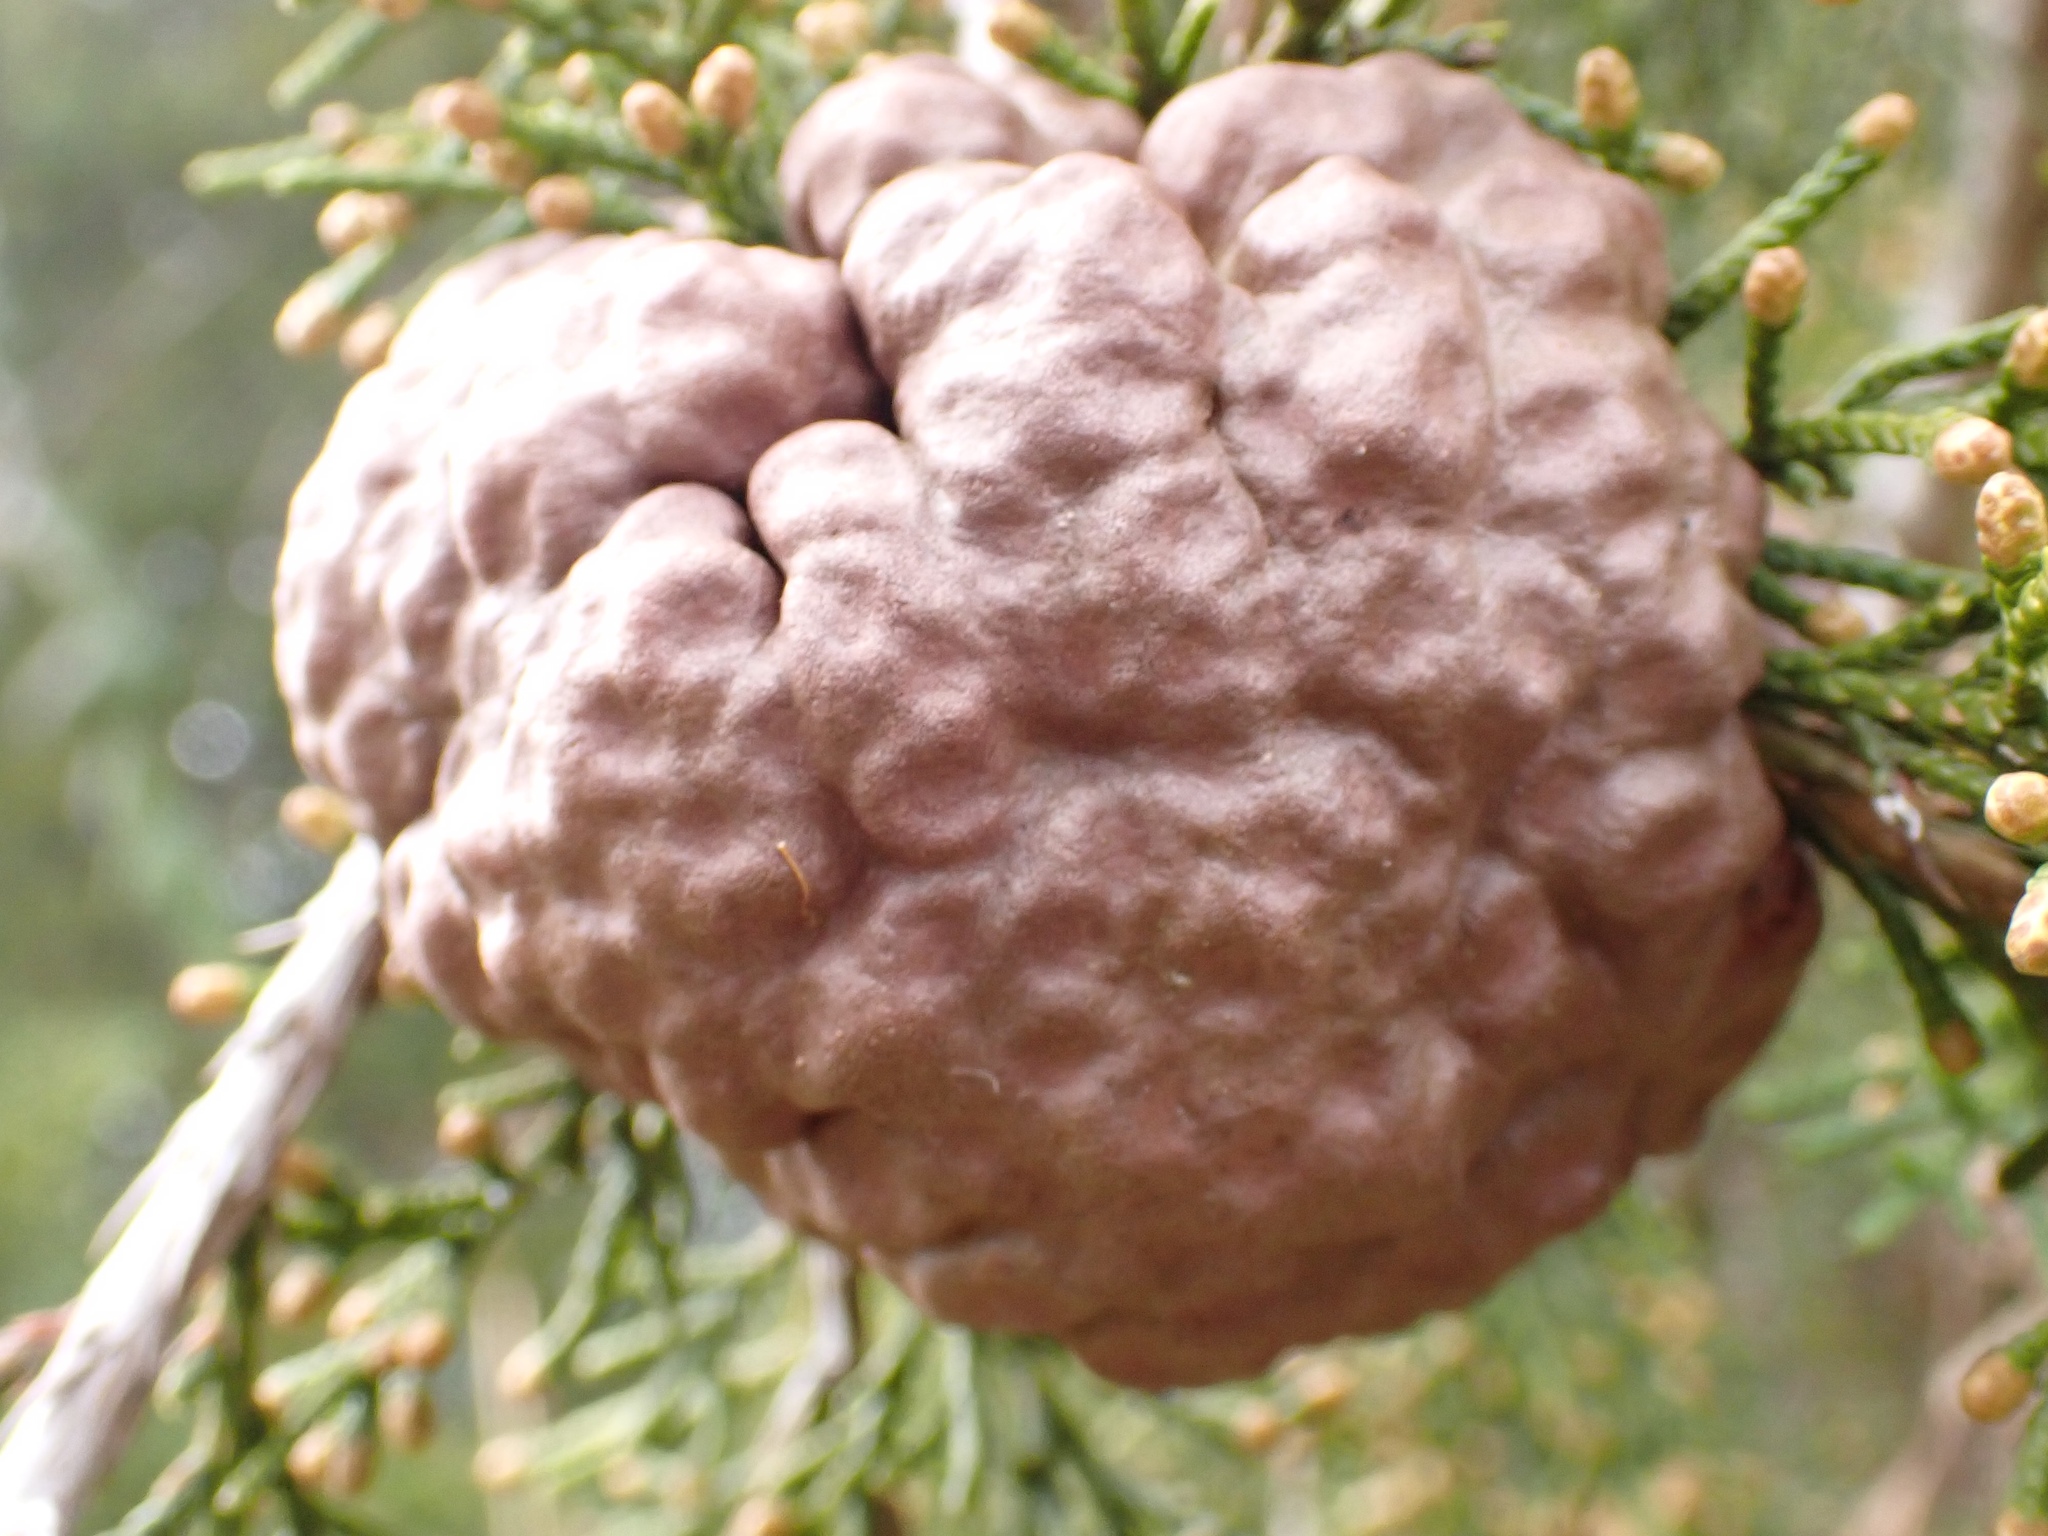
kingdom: Fungi
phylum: Basidiomycota
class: Pucciniomycetes
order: Pucciniales
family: Gymnosporangiaceae
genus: Gymnosporangium
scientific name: Gymnosporangium juniperi-virginianae
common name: Juniper-apple rust
